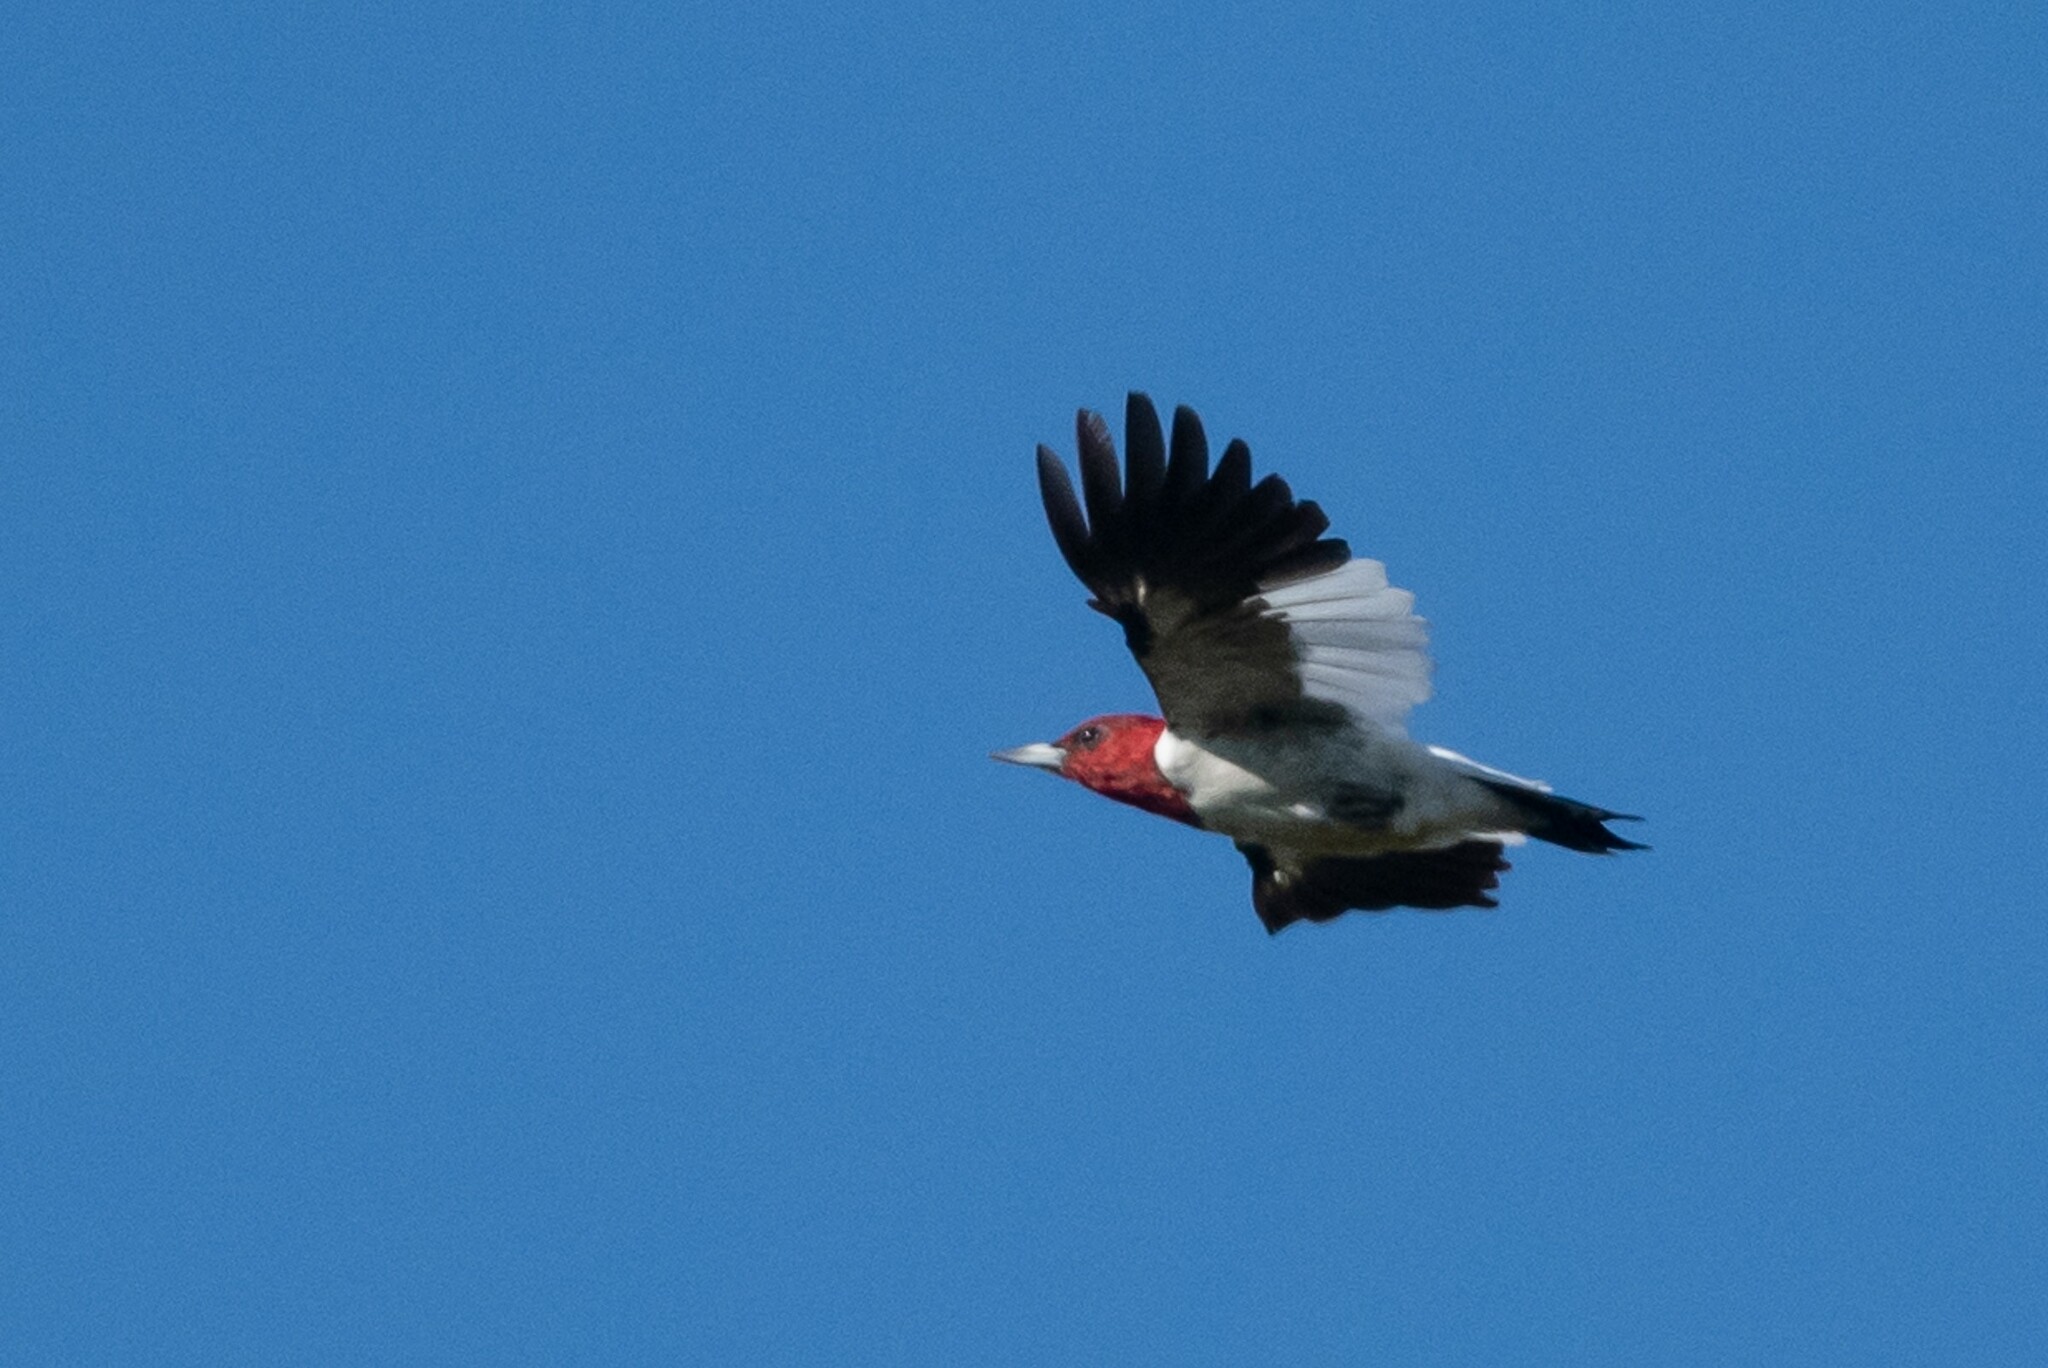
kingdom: Animalia
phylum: Chordata
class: Aves
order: Piciformes
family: Picidae
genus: Melanerpes
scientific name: Melanerpes erythrocephalus
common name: Red-headed woodpecker
